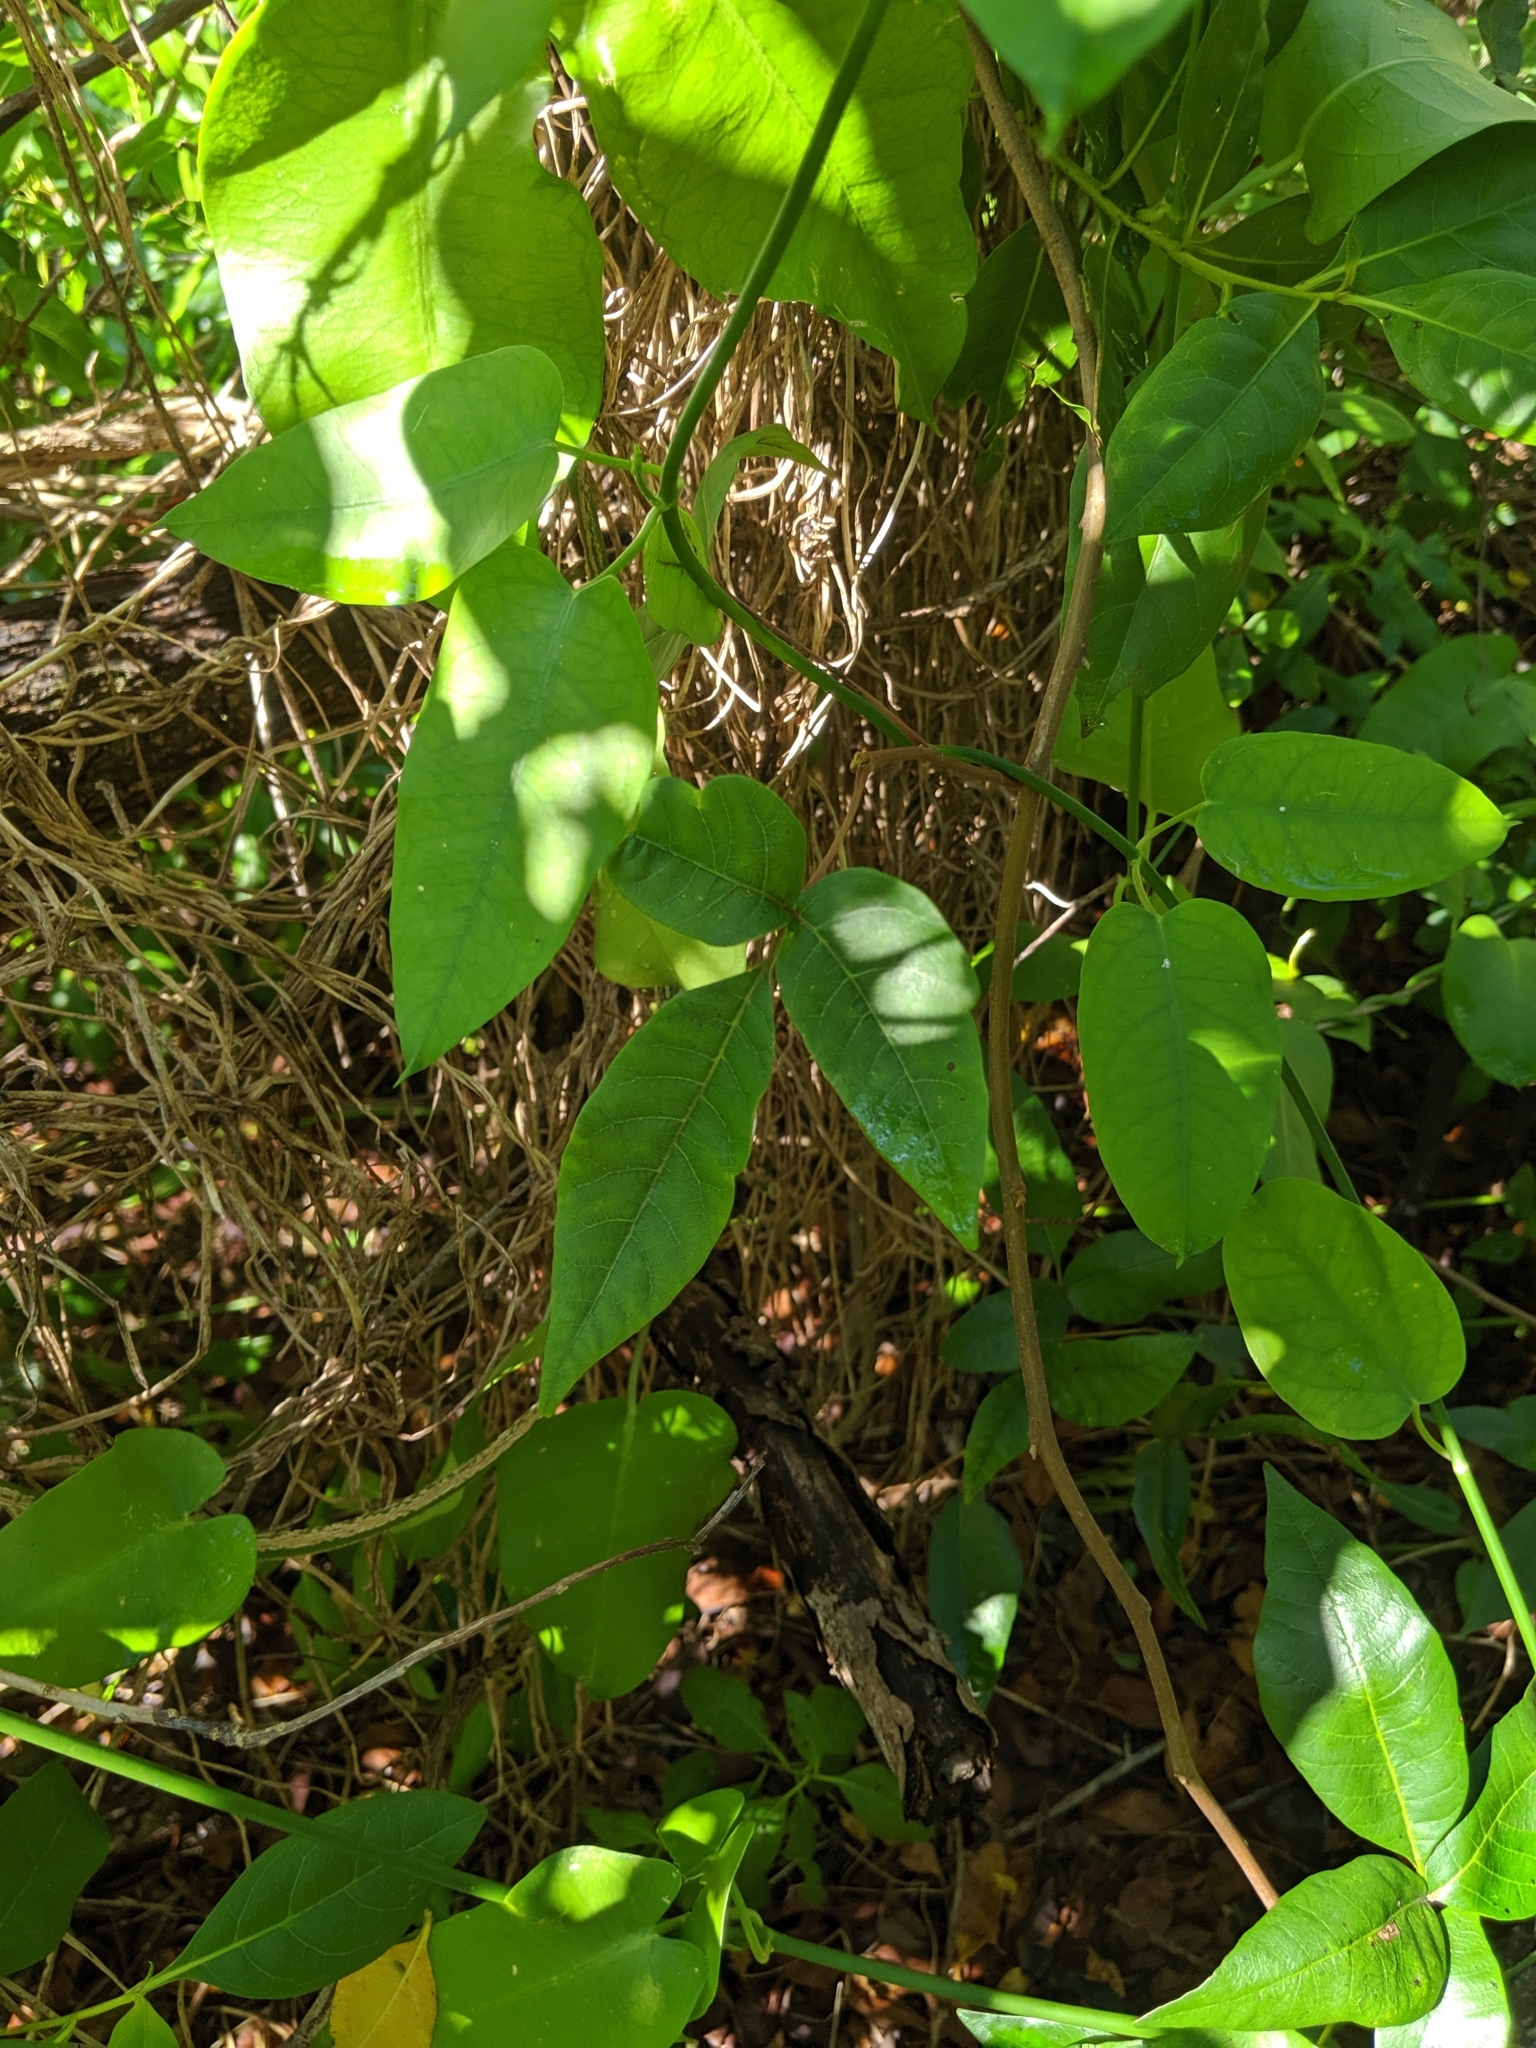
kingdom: Plantae
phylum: Tracheophyta
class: Magnoliopsida
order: Sapindales
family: Anacardiaceae
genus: Toxicodendron
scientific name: Toxicodendron radicans
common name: Poison ivy
